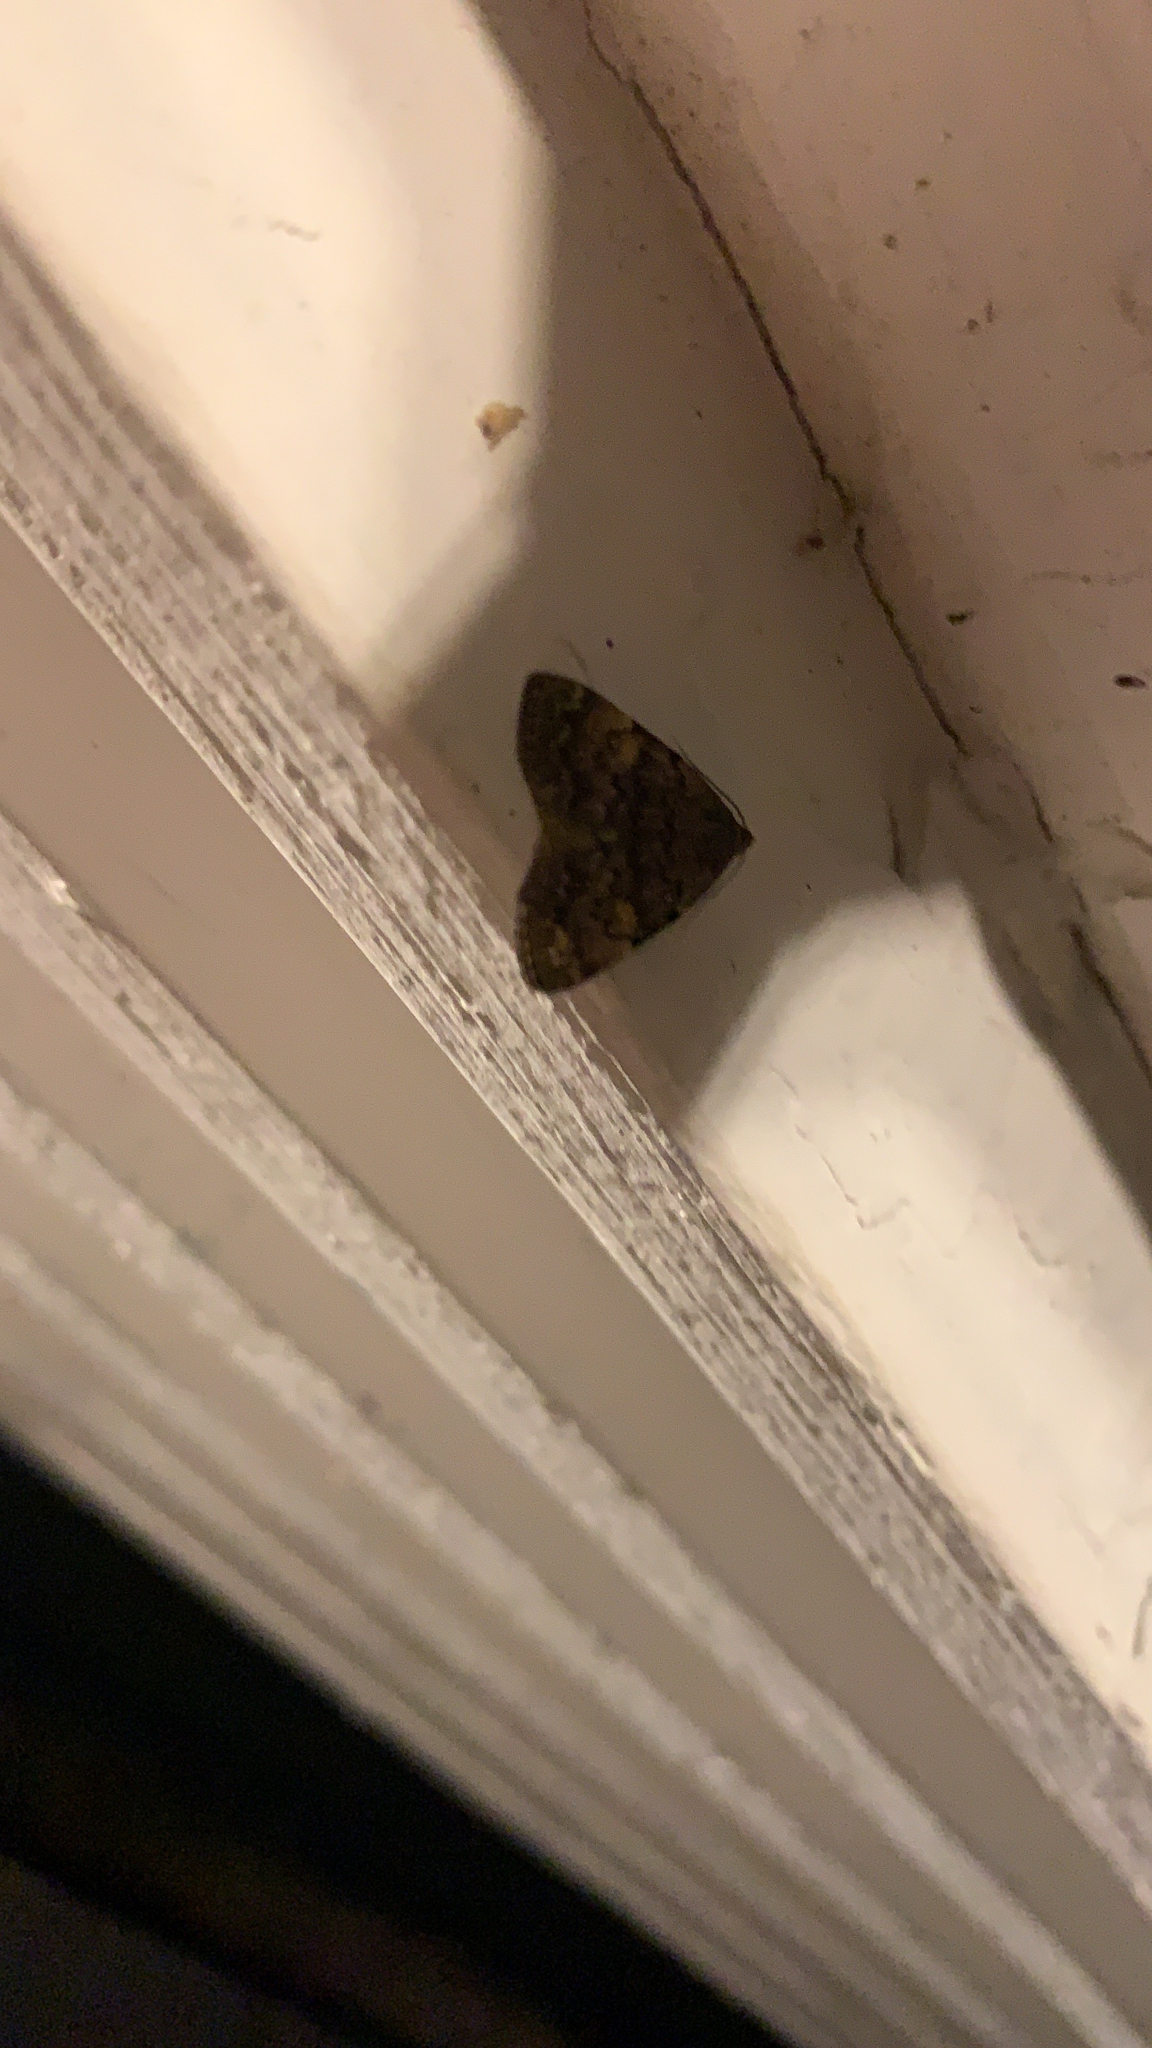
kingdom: Animalia
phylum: Arthropoda
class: Insecta
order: Lepidoptera
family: Erebidae
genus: Idia
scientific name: Idia aemula
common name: Common idia moth
